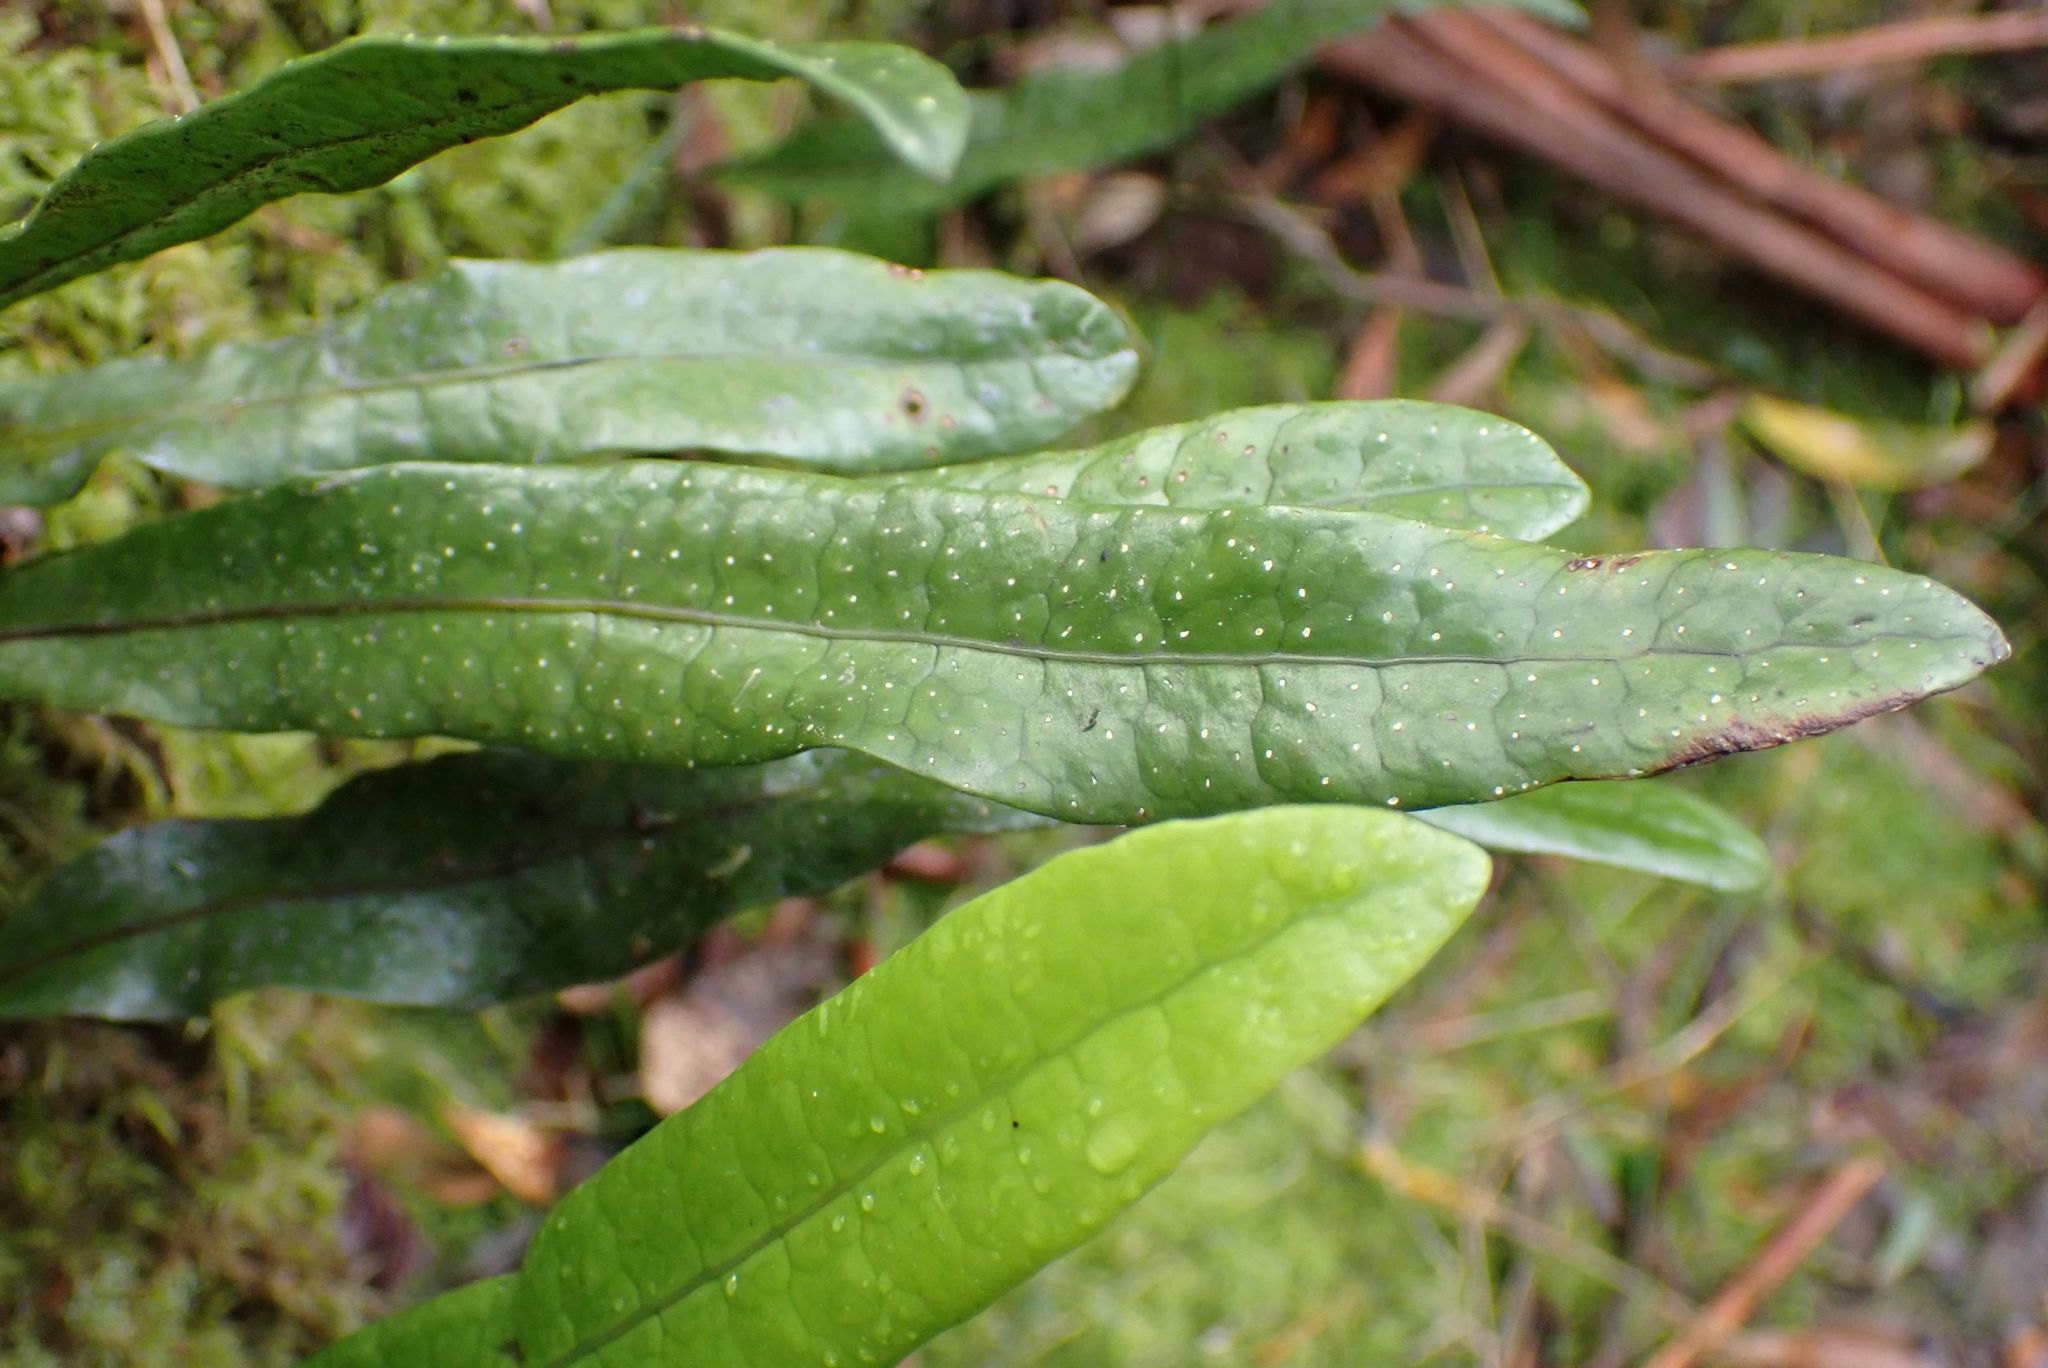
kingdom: Plantae
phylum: Tracheophyta
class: Polypodiopsida
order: Polypodiales
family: Polypodiaceae
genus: Lecanopteris
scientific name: Lecanopteris pustulata
